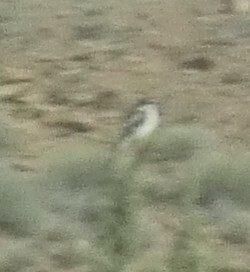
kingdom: Animalia
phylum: Chordata
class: Aves
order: Passeriformes
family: Laniidae
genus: Lanius
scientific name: Lanius senator
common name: Woodchat shrike
